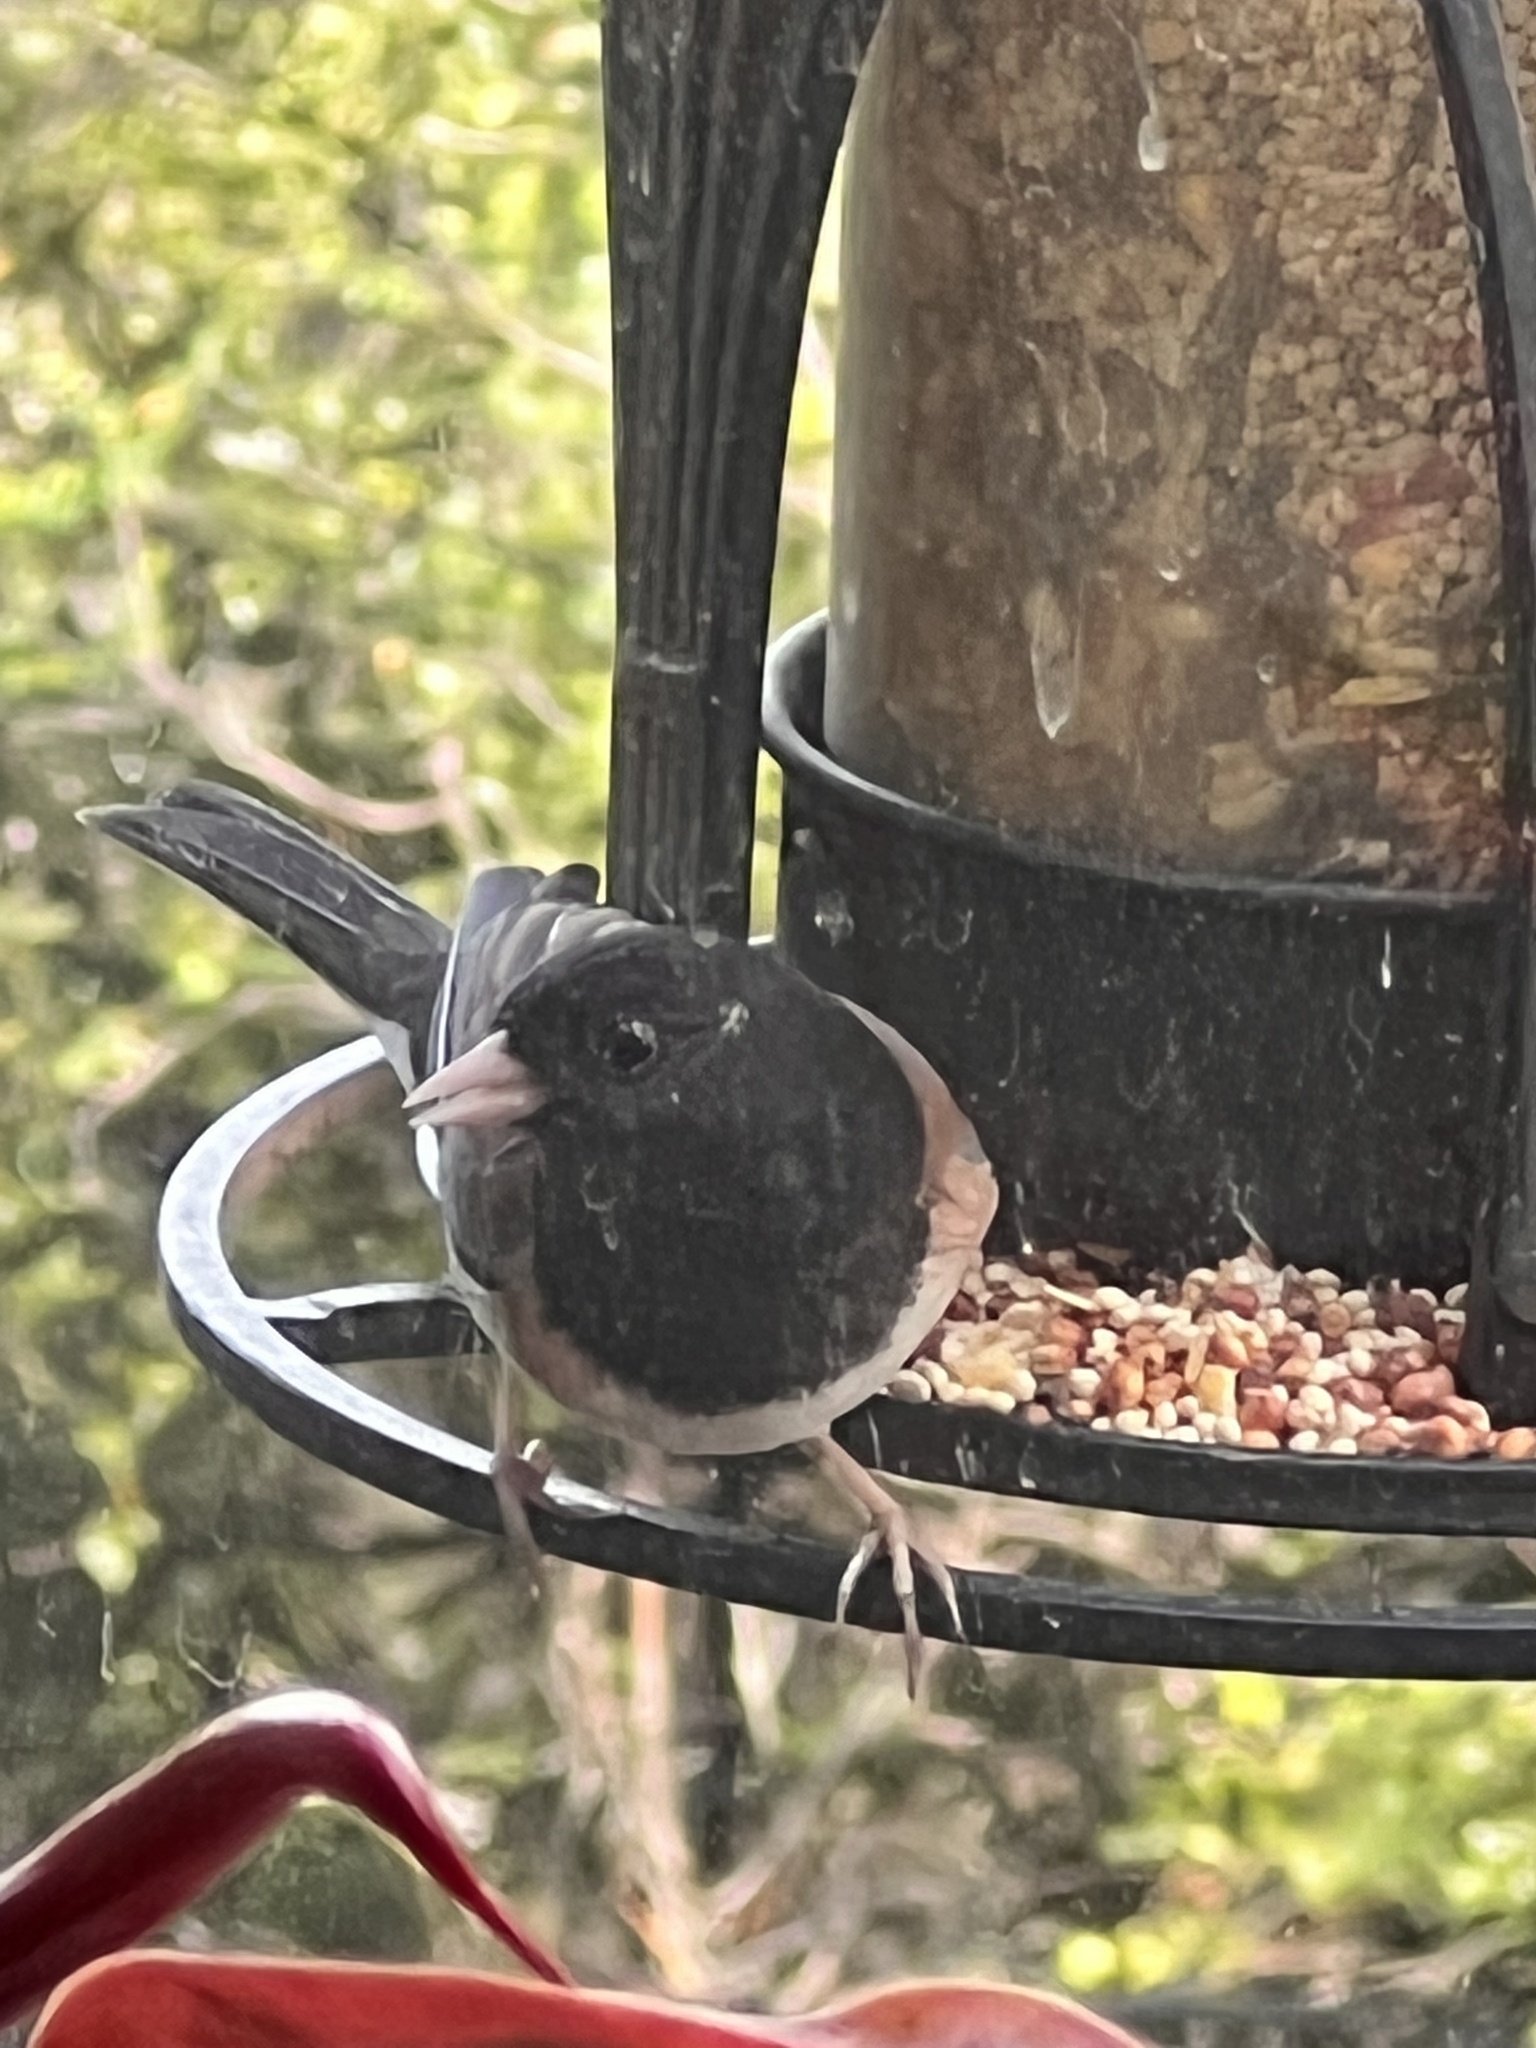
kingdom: Animalia
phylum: Chordata
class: Aves
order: Passeriformes
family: Passerellidae
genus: Junco
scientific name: Junco hyemalis
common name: Dark-eyed junco
